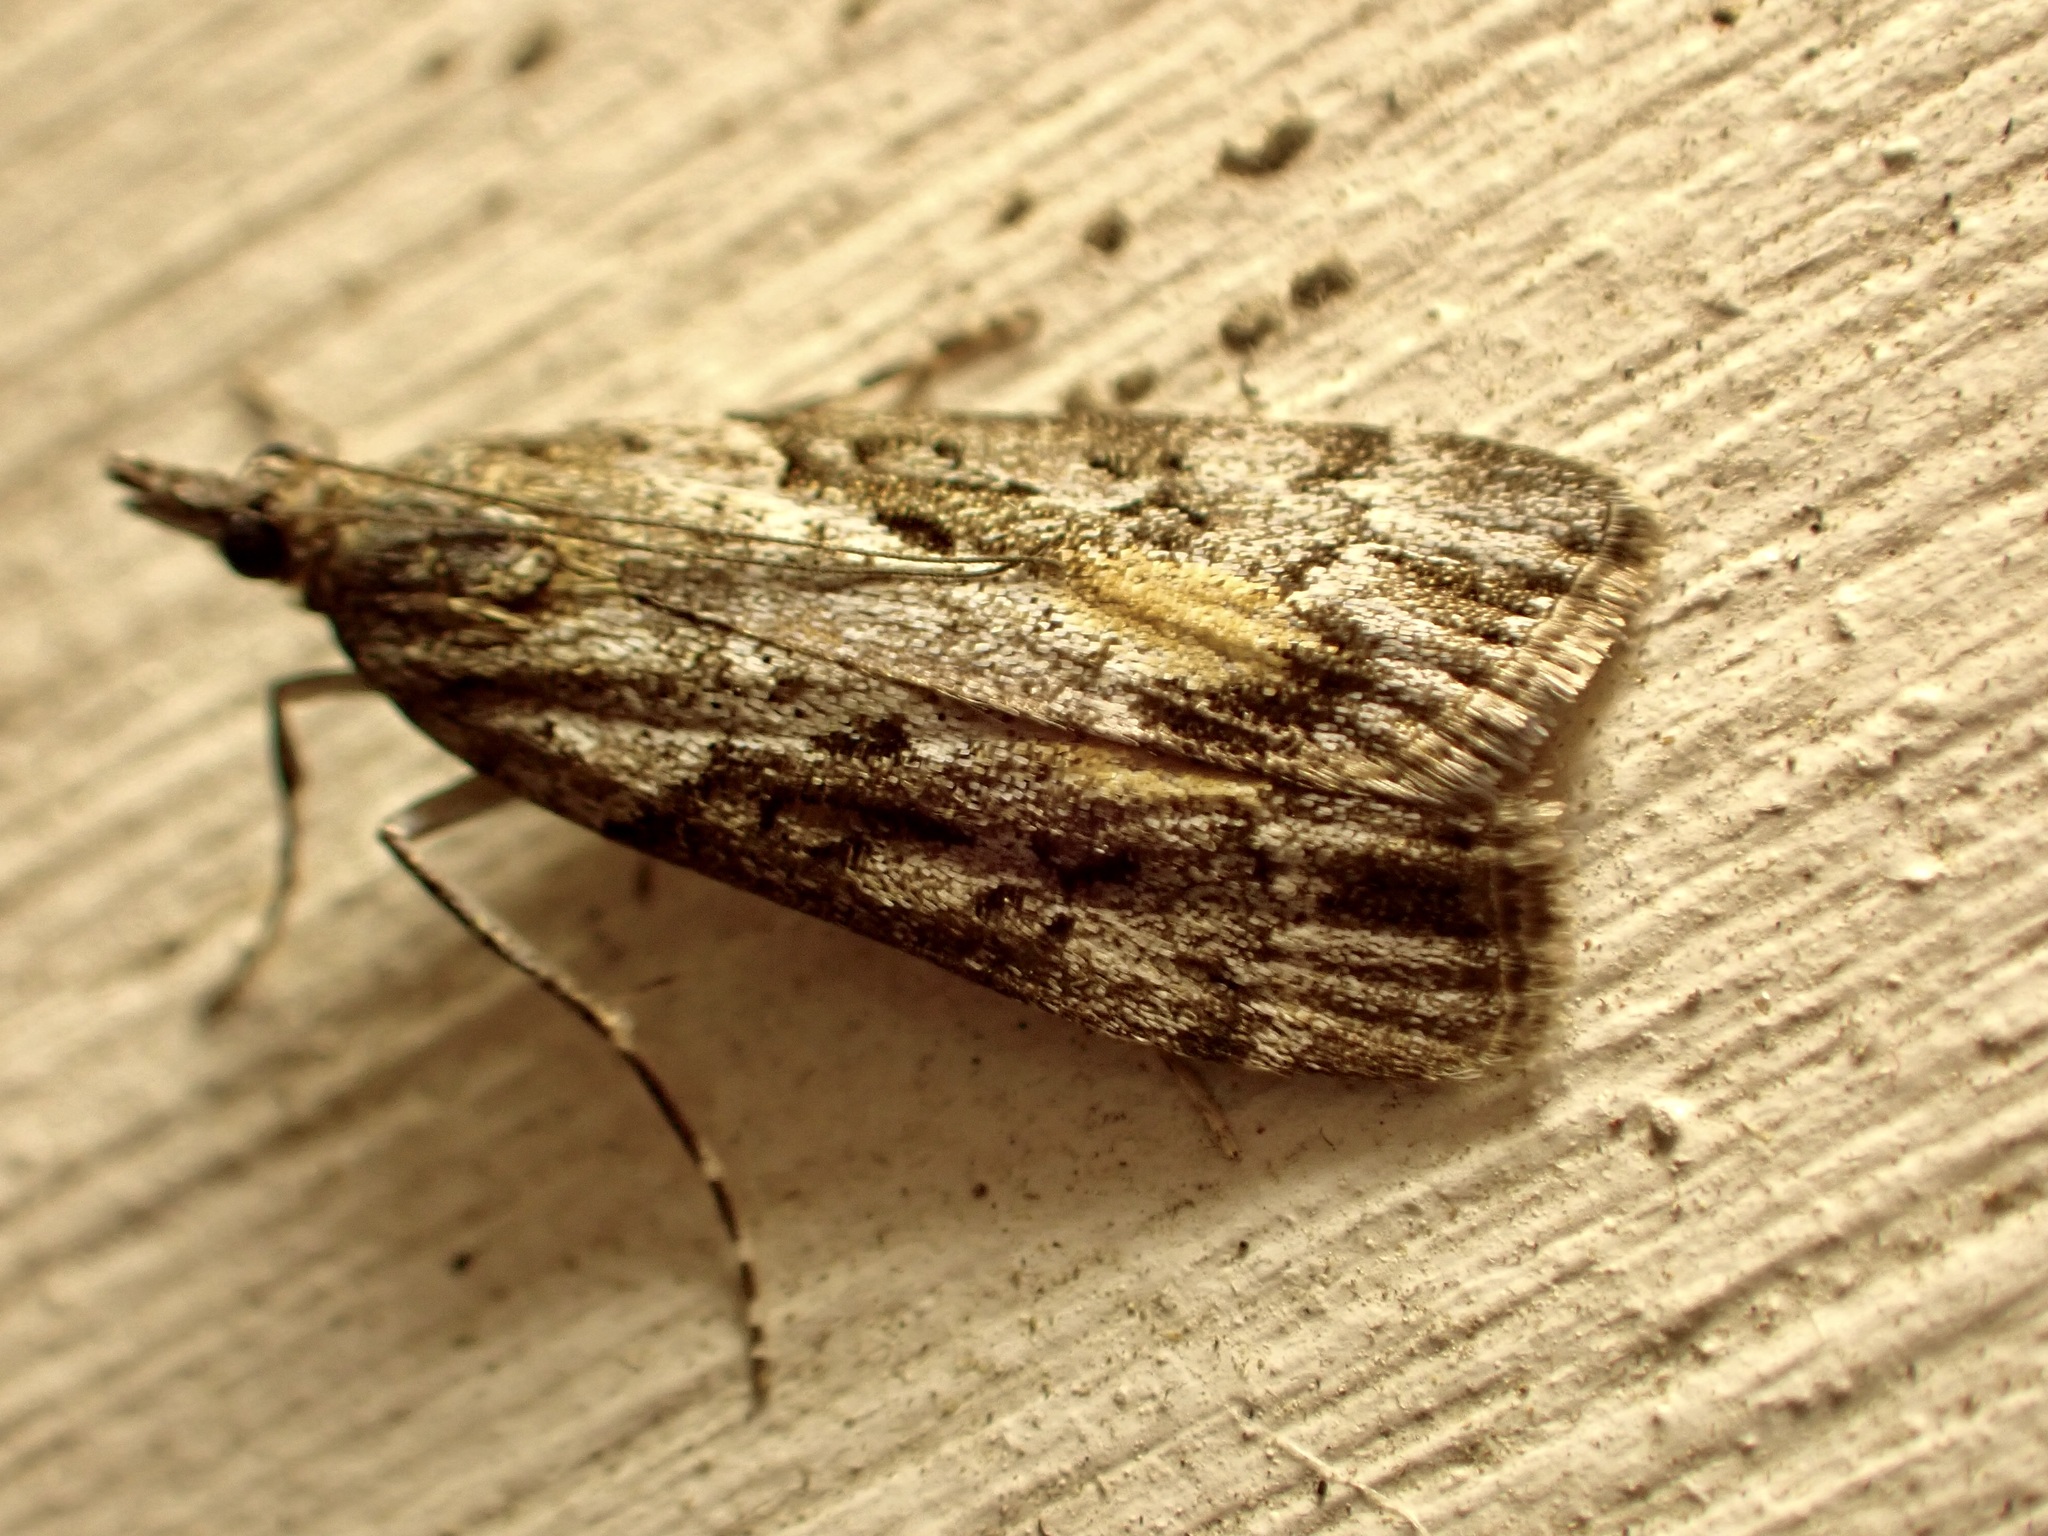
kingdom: Animalia
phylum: Arthropoda
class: Insecta
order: Lepidoptera
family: Crambidae
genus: Eudonia
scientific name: Eudonia submarginalis
